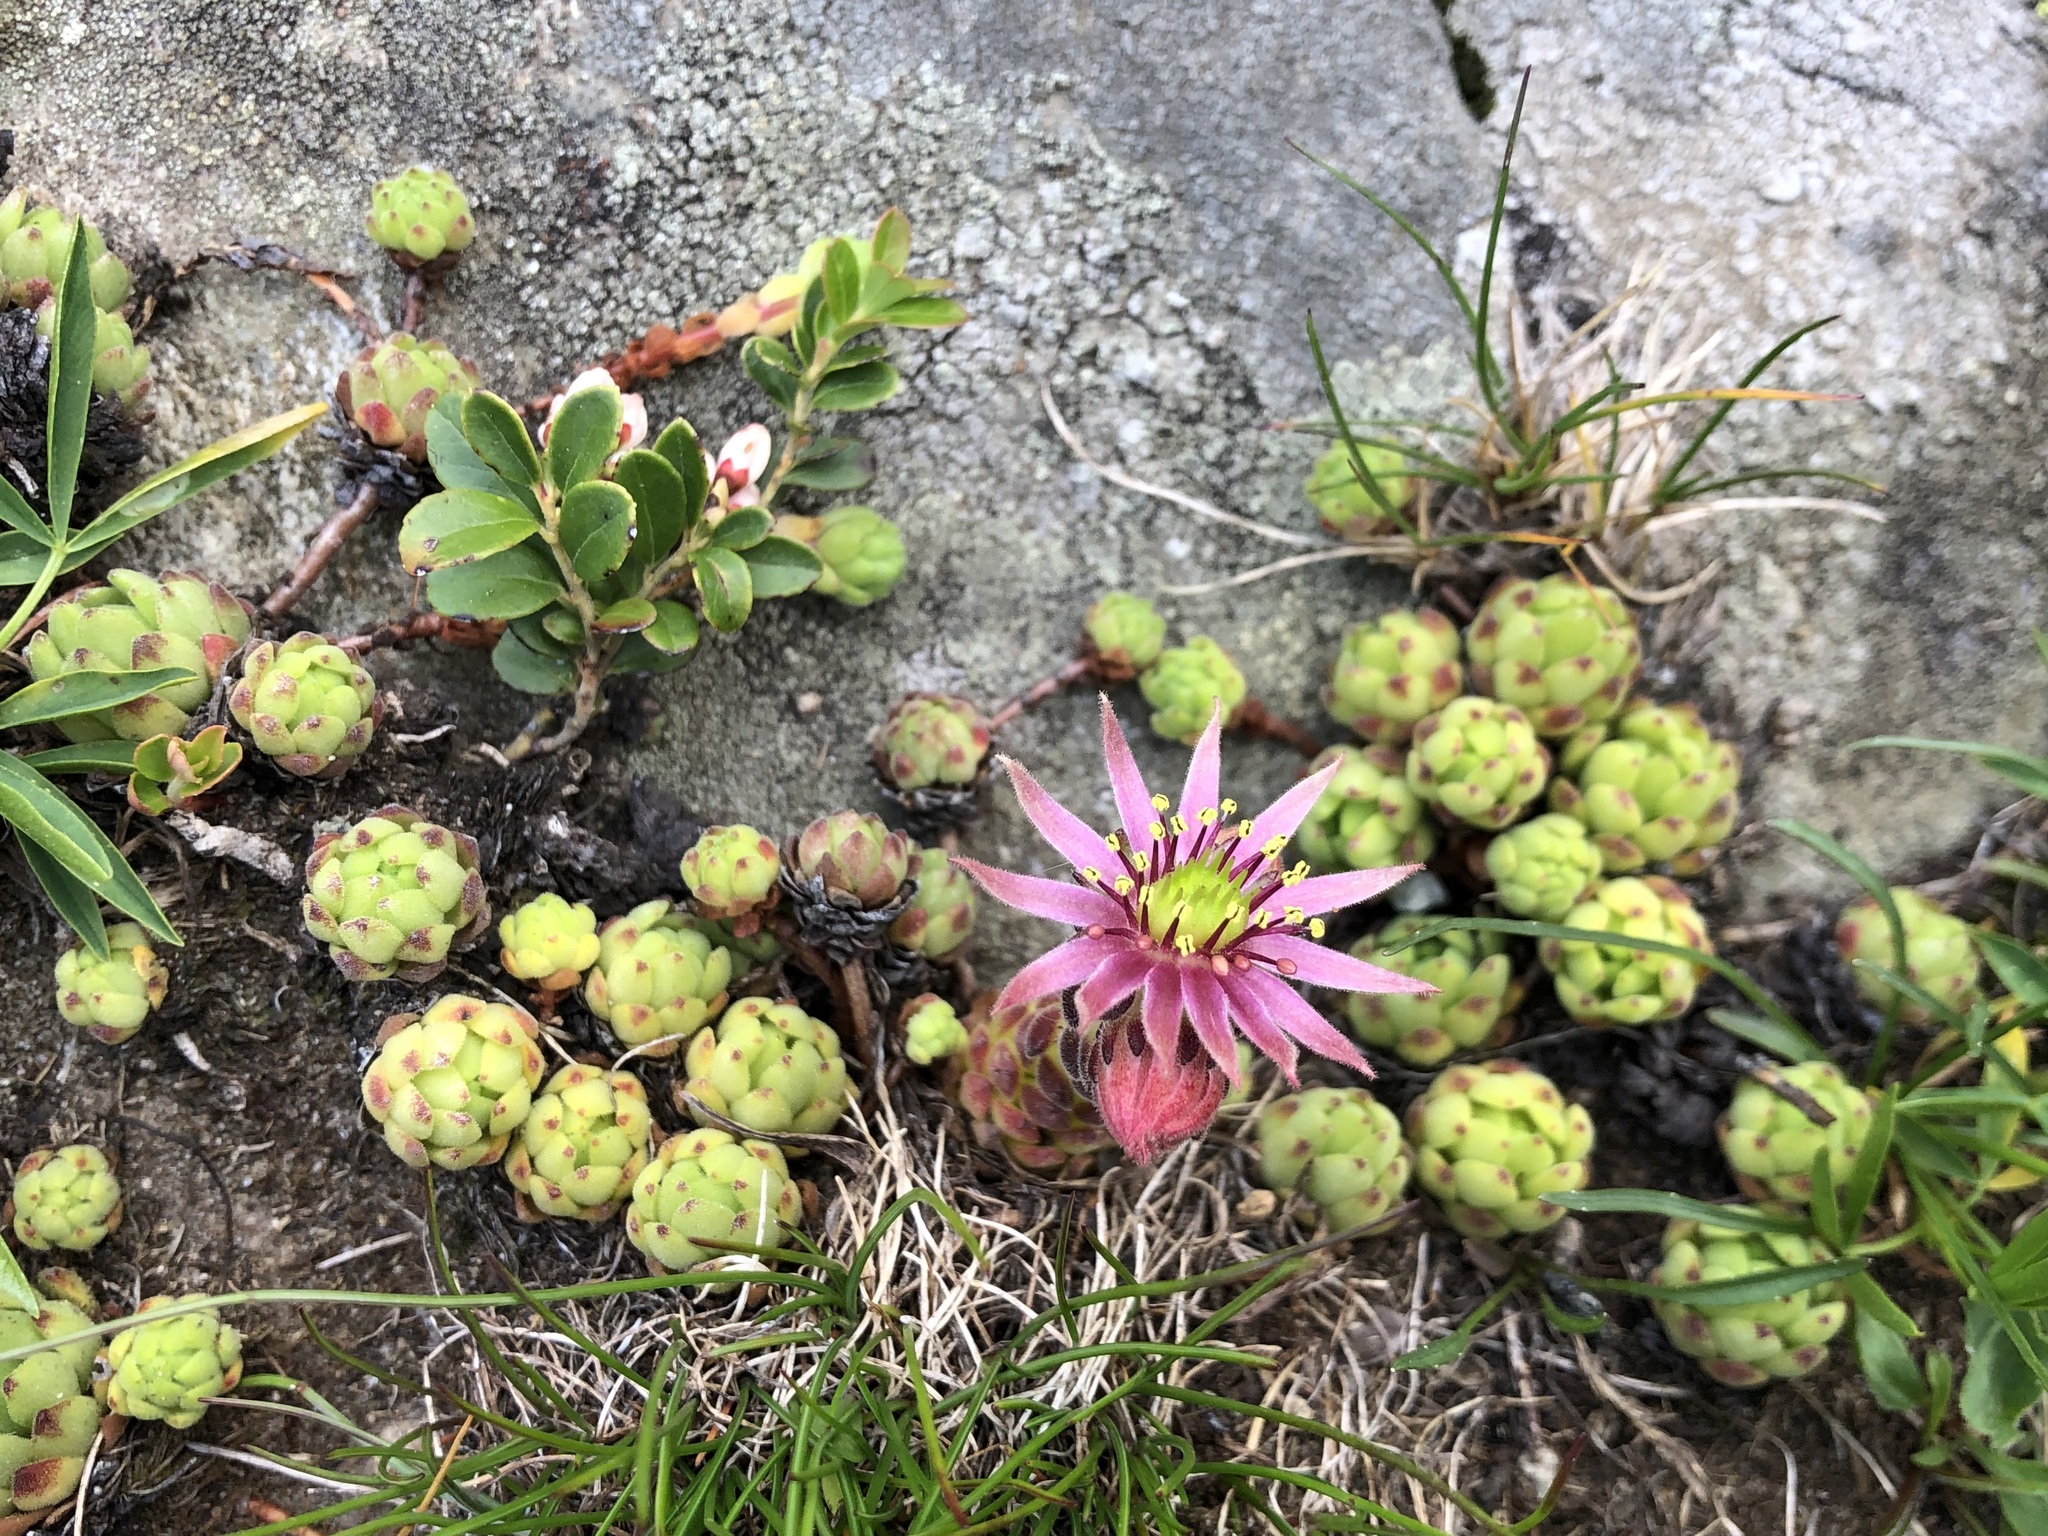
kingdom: Plantae
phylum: Tracheophyta
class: Magnoliopsida
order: Saxifragales
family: Crassulaceae
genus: Sempervivum
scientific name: Sempervivum montanum
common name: Mountain house-leek
